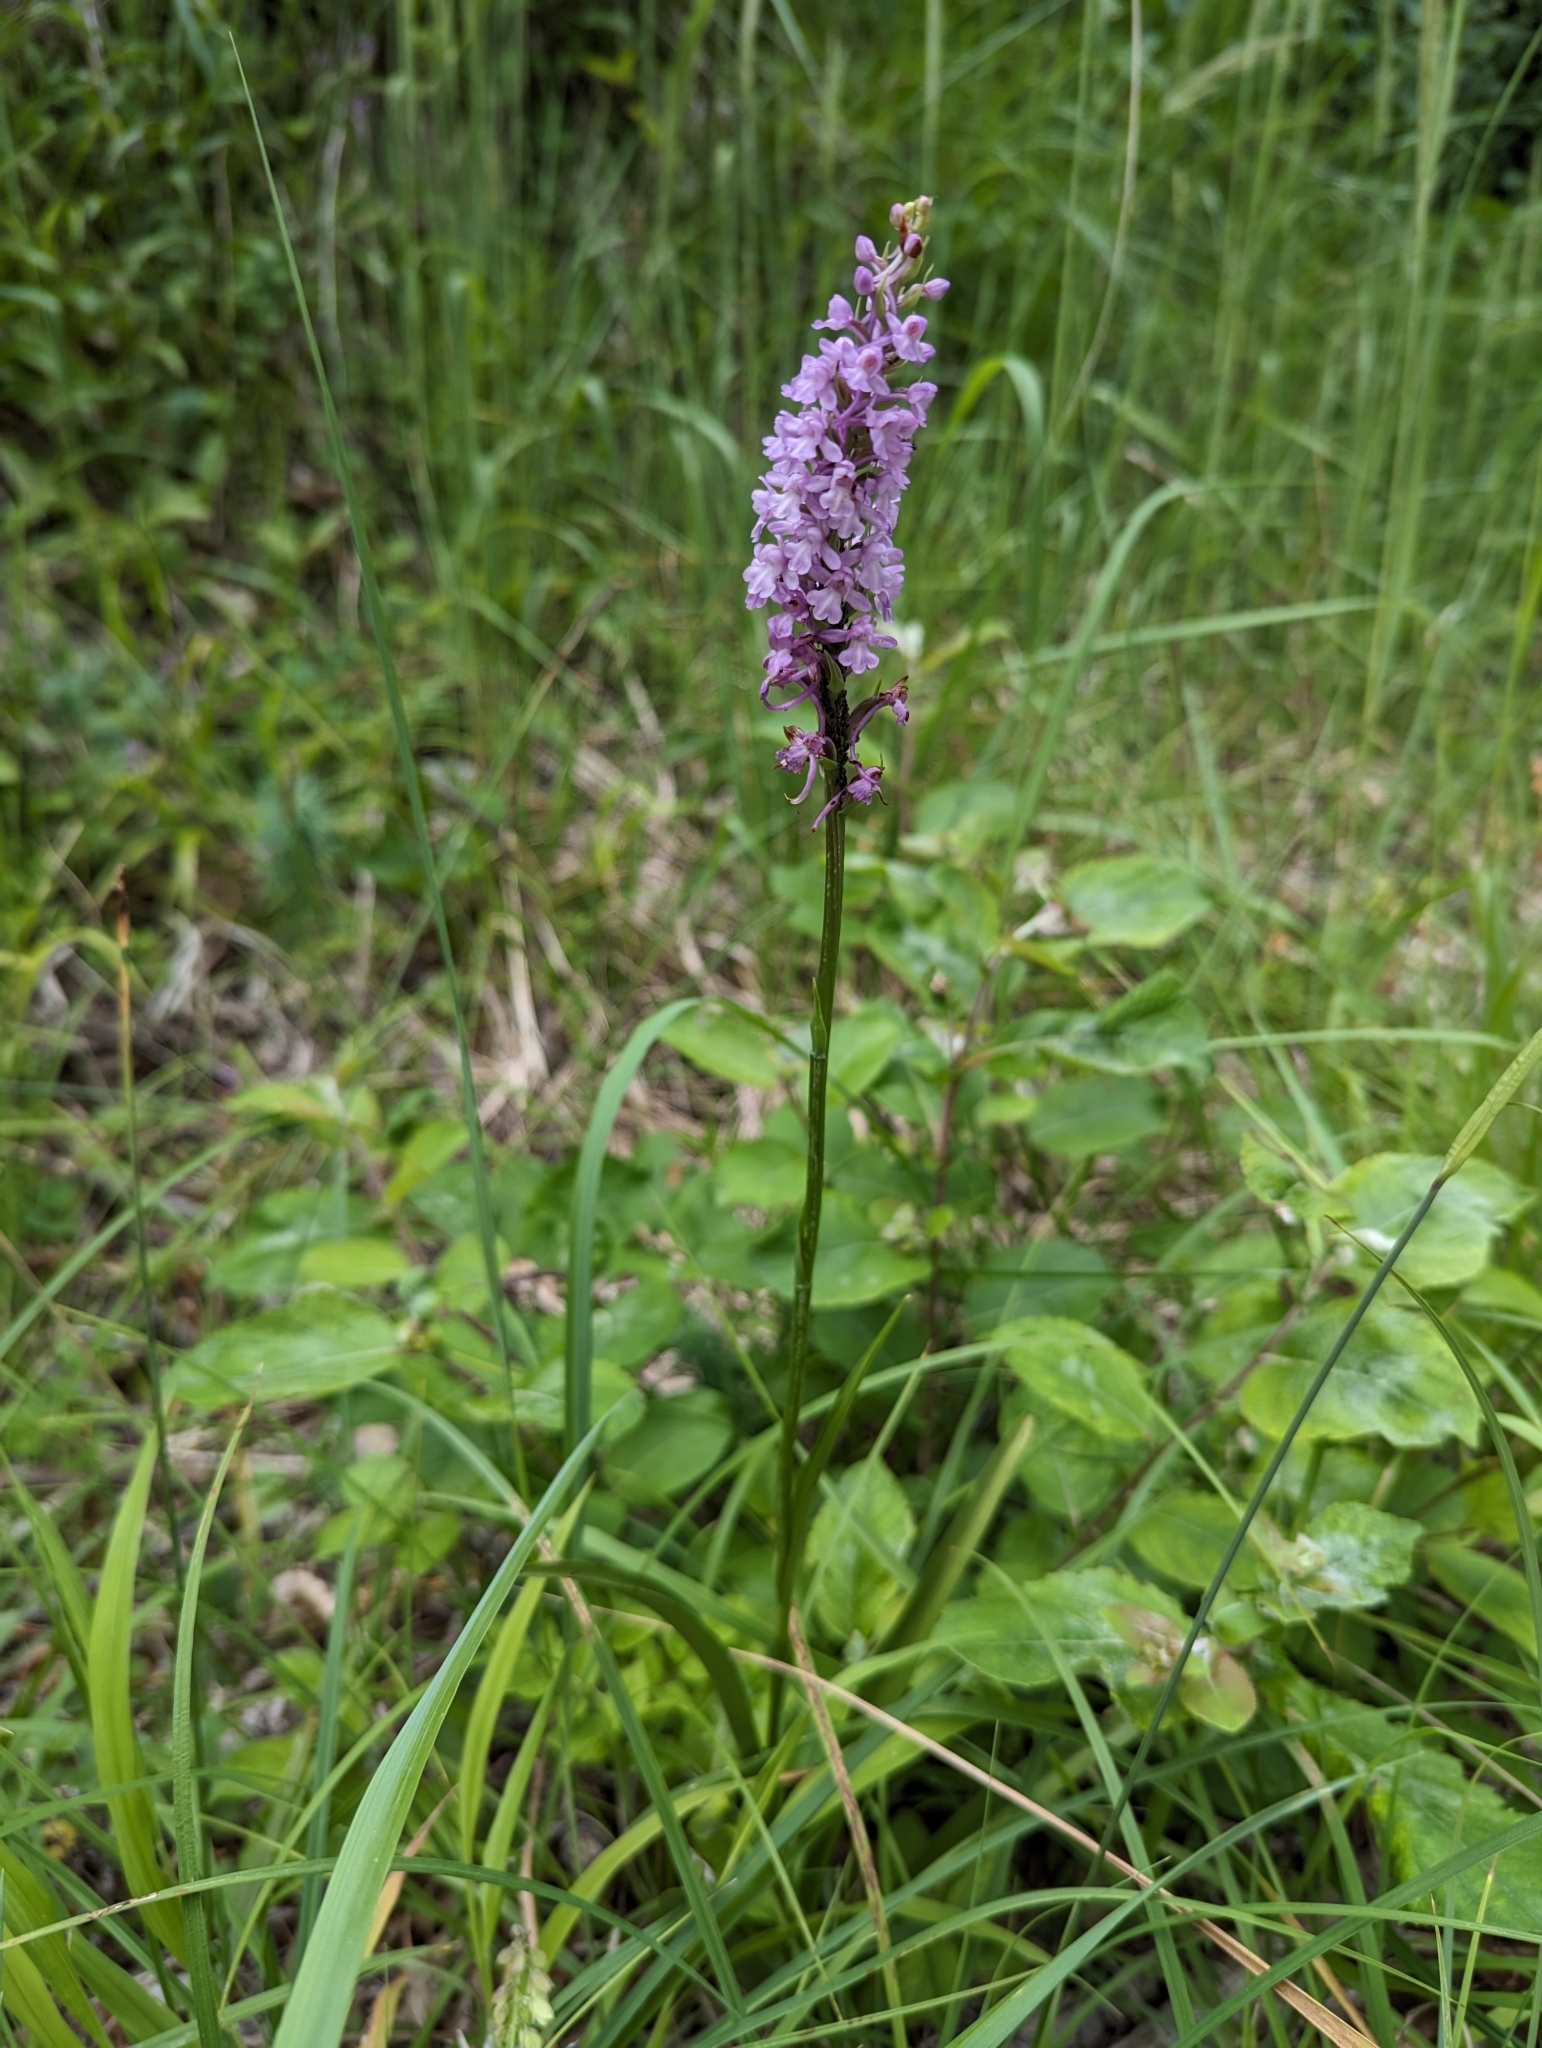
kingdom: Plantae
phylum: Tracheophyta
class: Liliopsida
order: Asparagales
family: Orchidaceae
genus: Gymnadenia
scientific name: Gymnadenia conopsea
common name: Fragrant orchid
